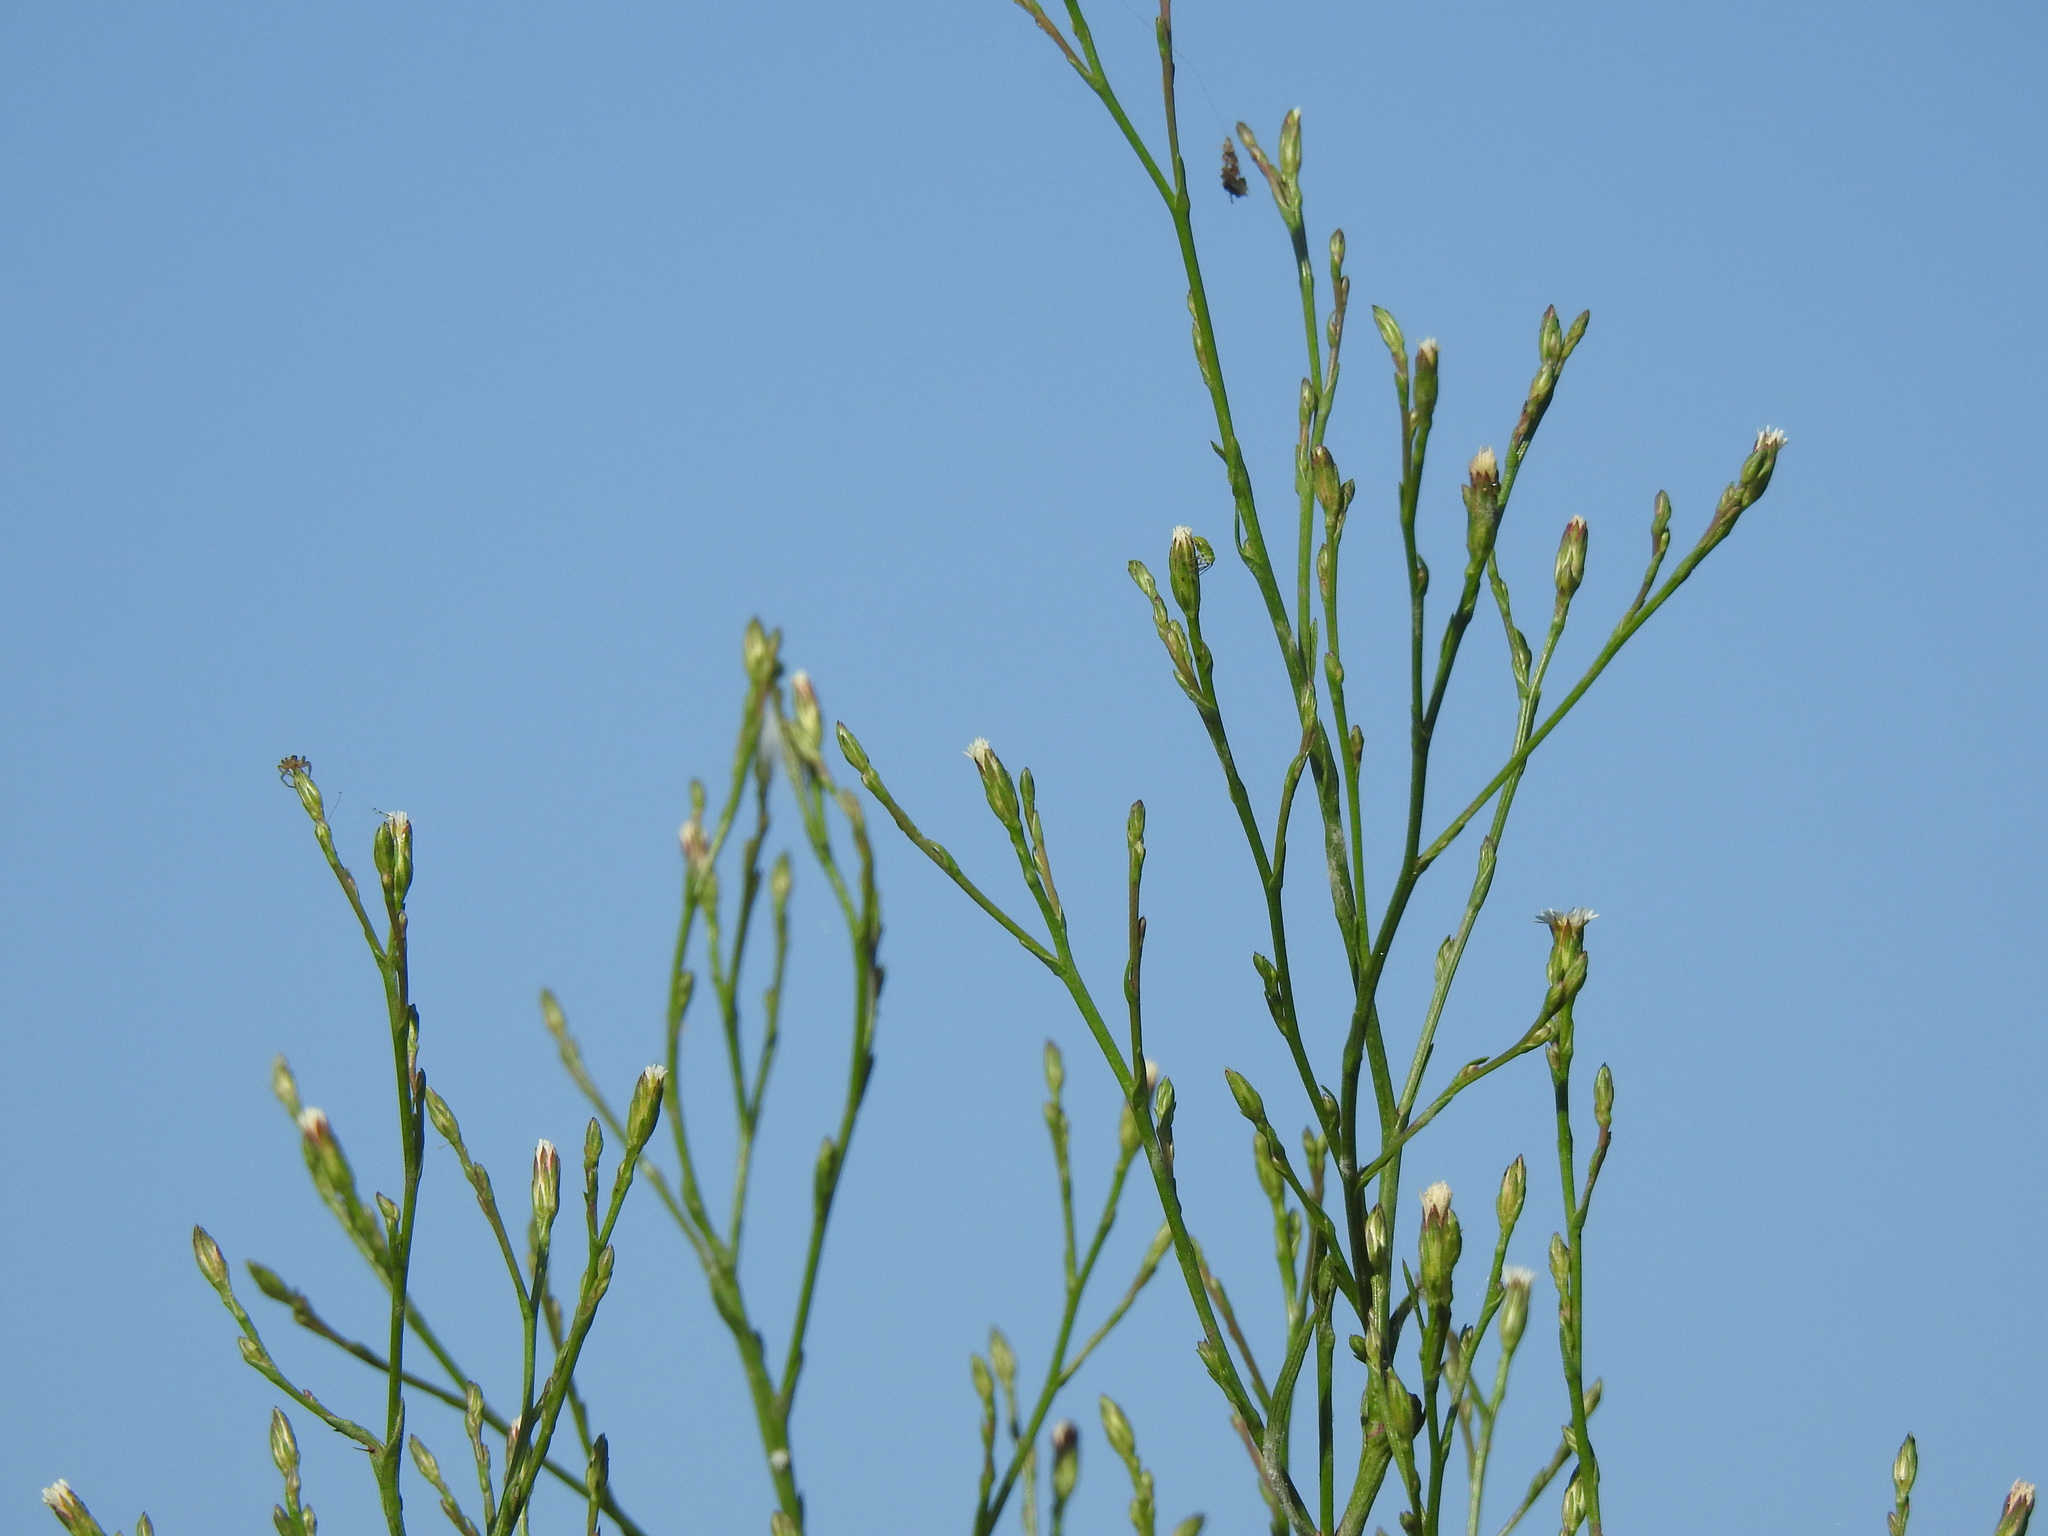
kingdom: Plantae
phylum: Tracheophyta
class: Magnoliopsida
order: Asterales
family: Asteraceae
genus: Symphyotrichum
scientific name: Symphyotrichum squamatum
